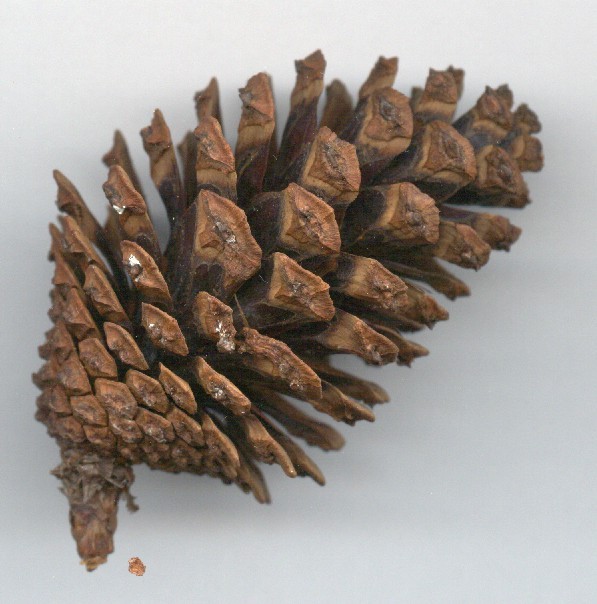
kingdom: Plantae
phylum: Tracheophyta
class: Pinopsida
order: Pinales
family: Pinaceae
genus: Pinus
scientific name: Pinus maximinoi
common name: Thin-leaf pine
